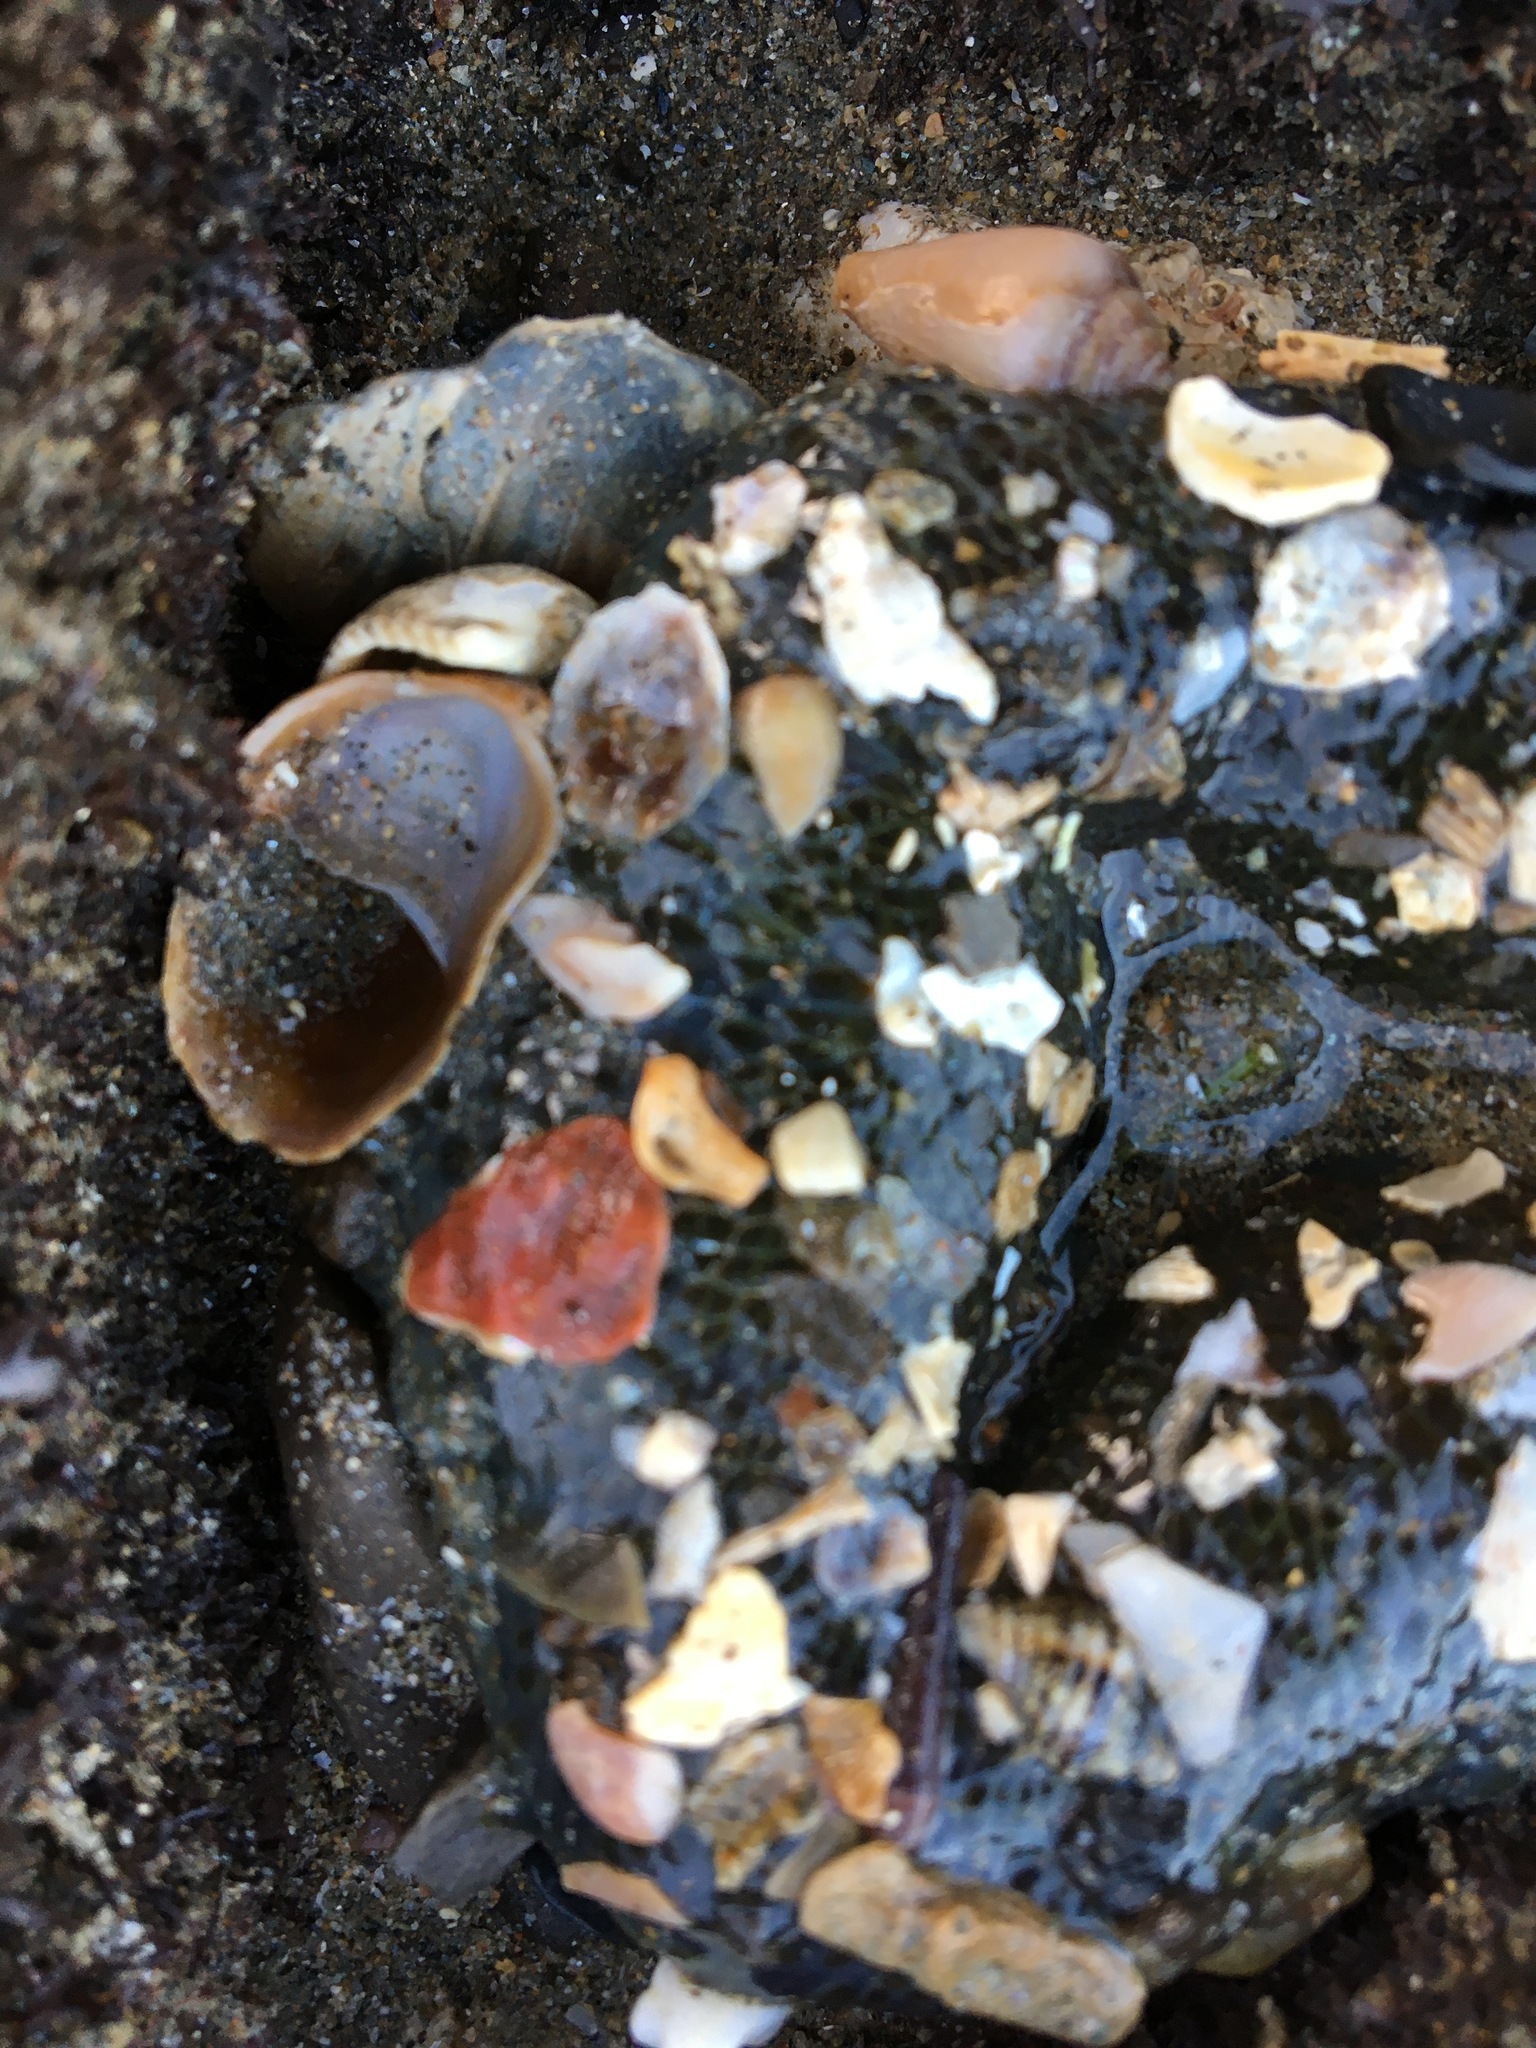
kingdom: Animalia
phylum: Mollusca
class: Gastropoda
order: Littorinimorpha
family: Calyptraeidae
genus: Crepidula
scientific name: Crepidula onyx
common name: Onyx slippersnail
